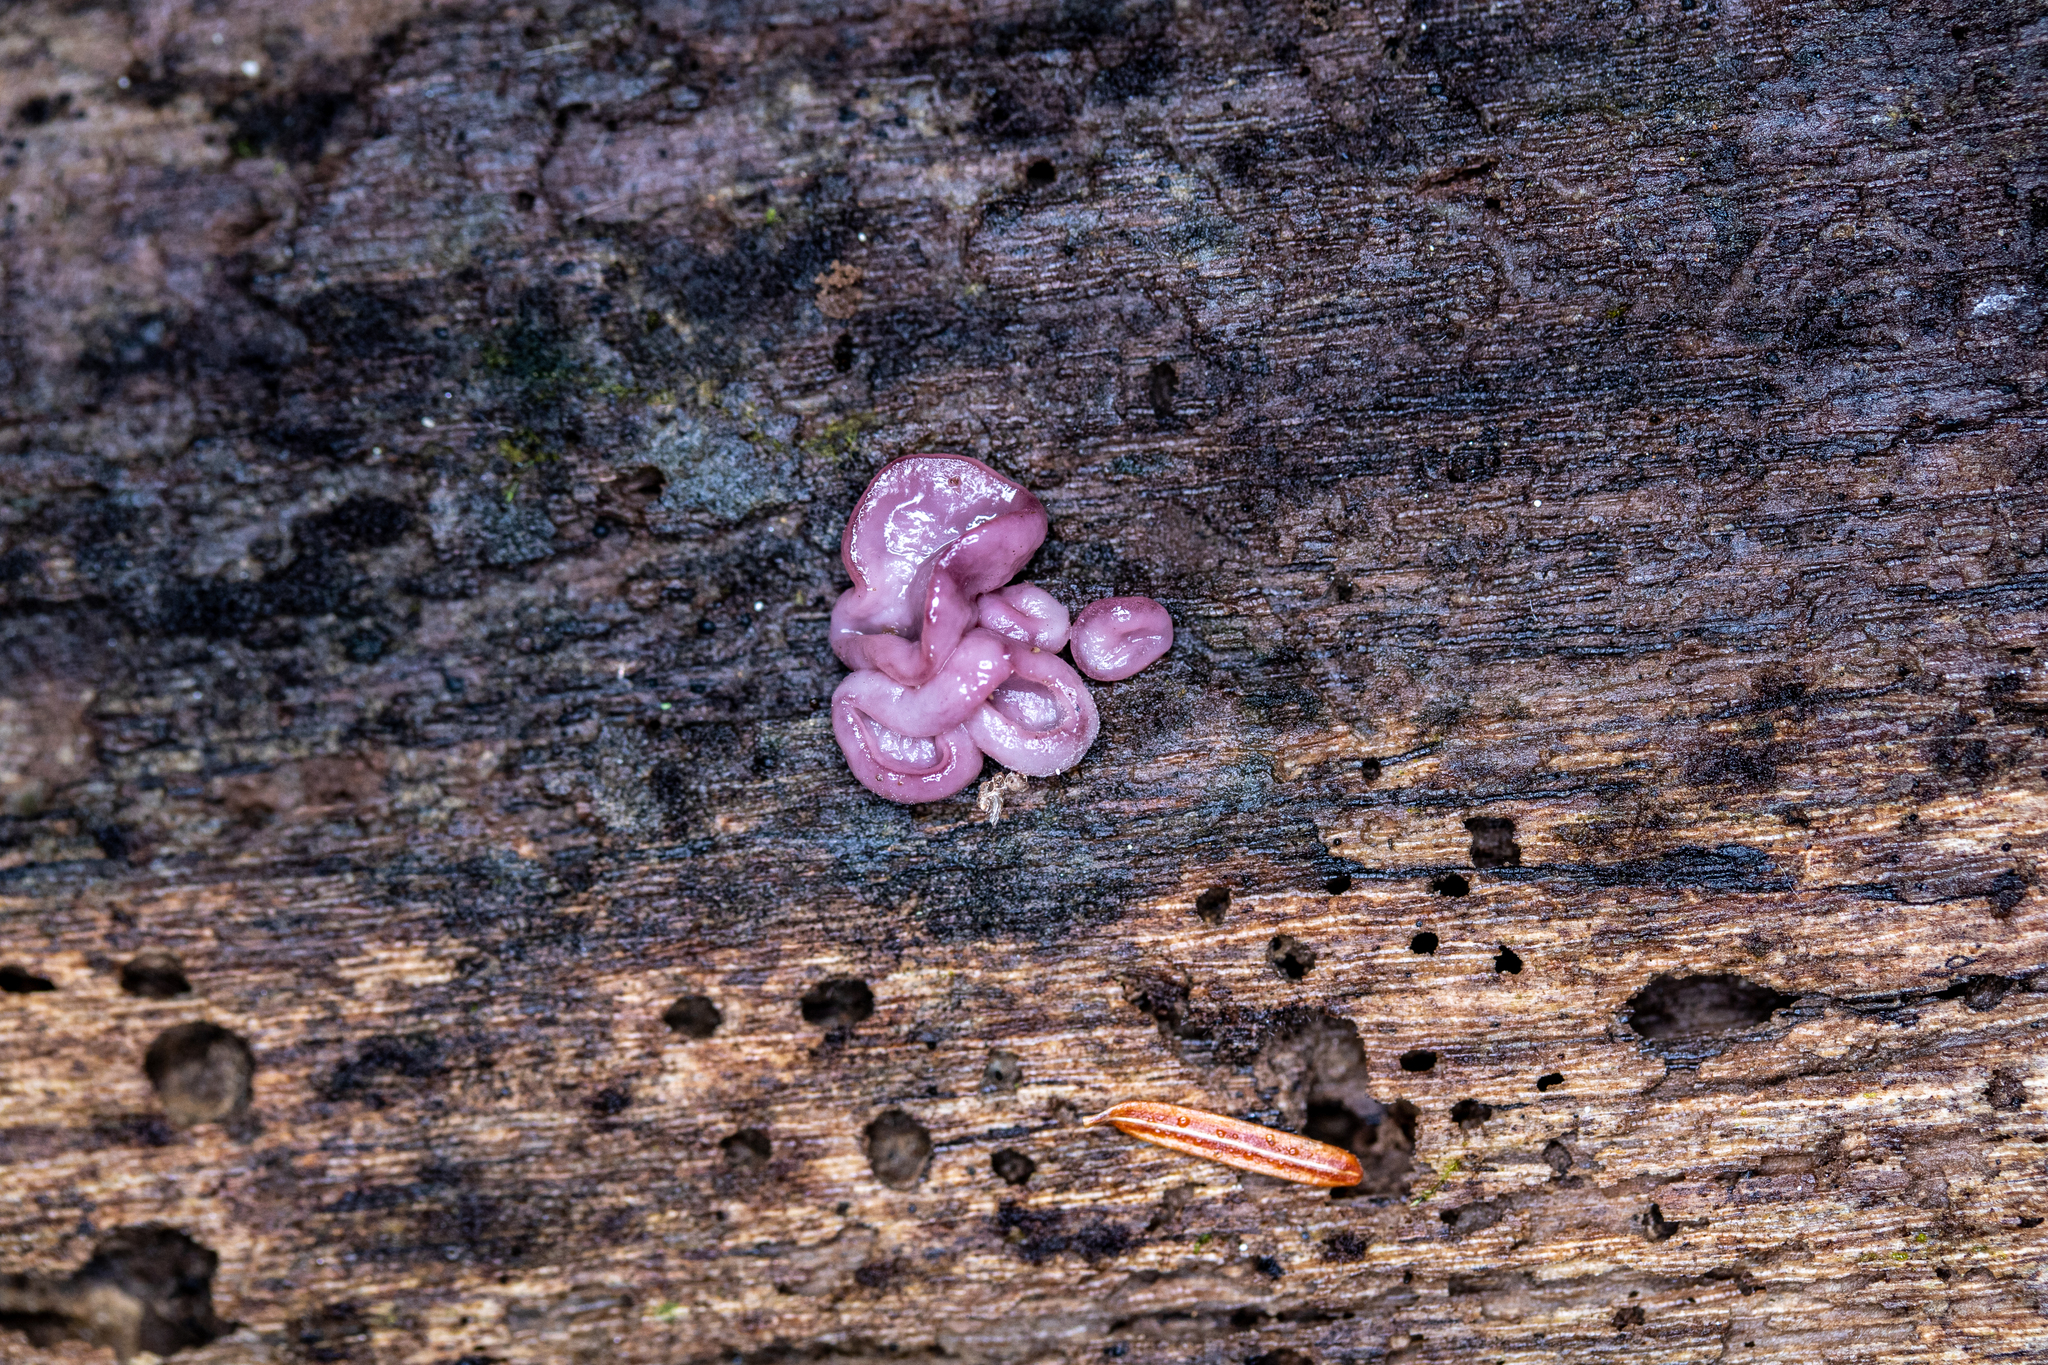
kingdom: Fungi
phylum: Ascomycota
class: Leotiomycetes
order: Helotiales
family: Gelatinodiscaceae
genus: Ascocoryne
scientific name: Ascocoryne sarcoides
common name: Purple jellydisc
